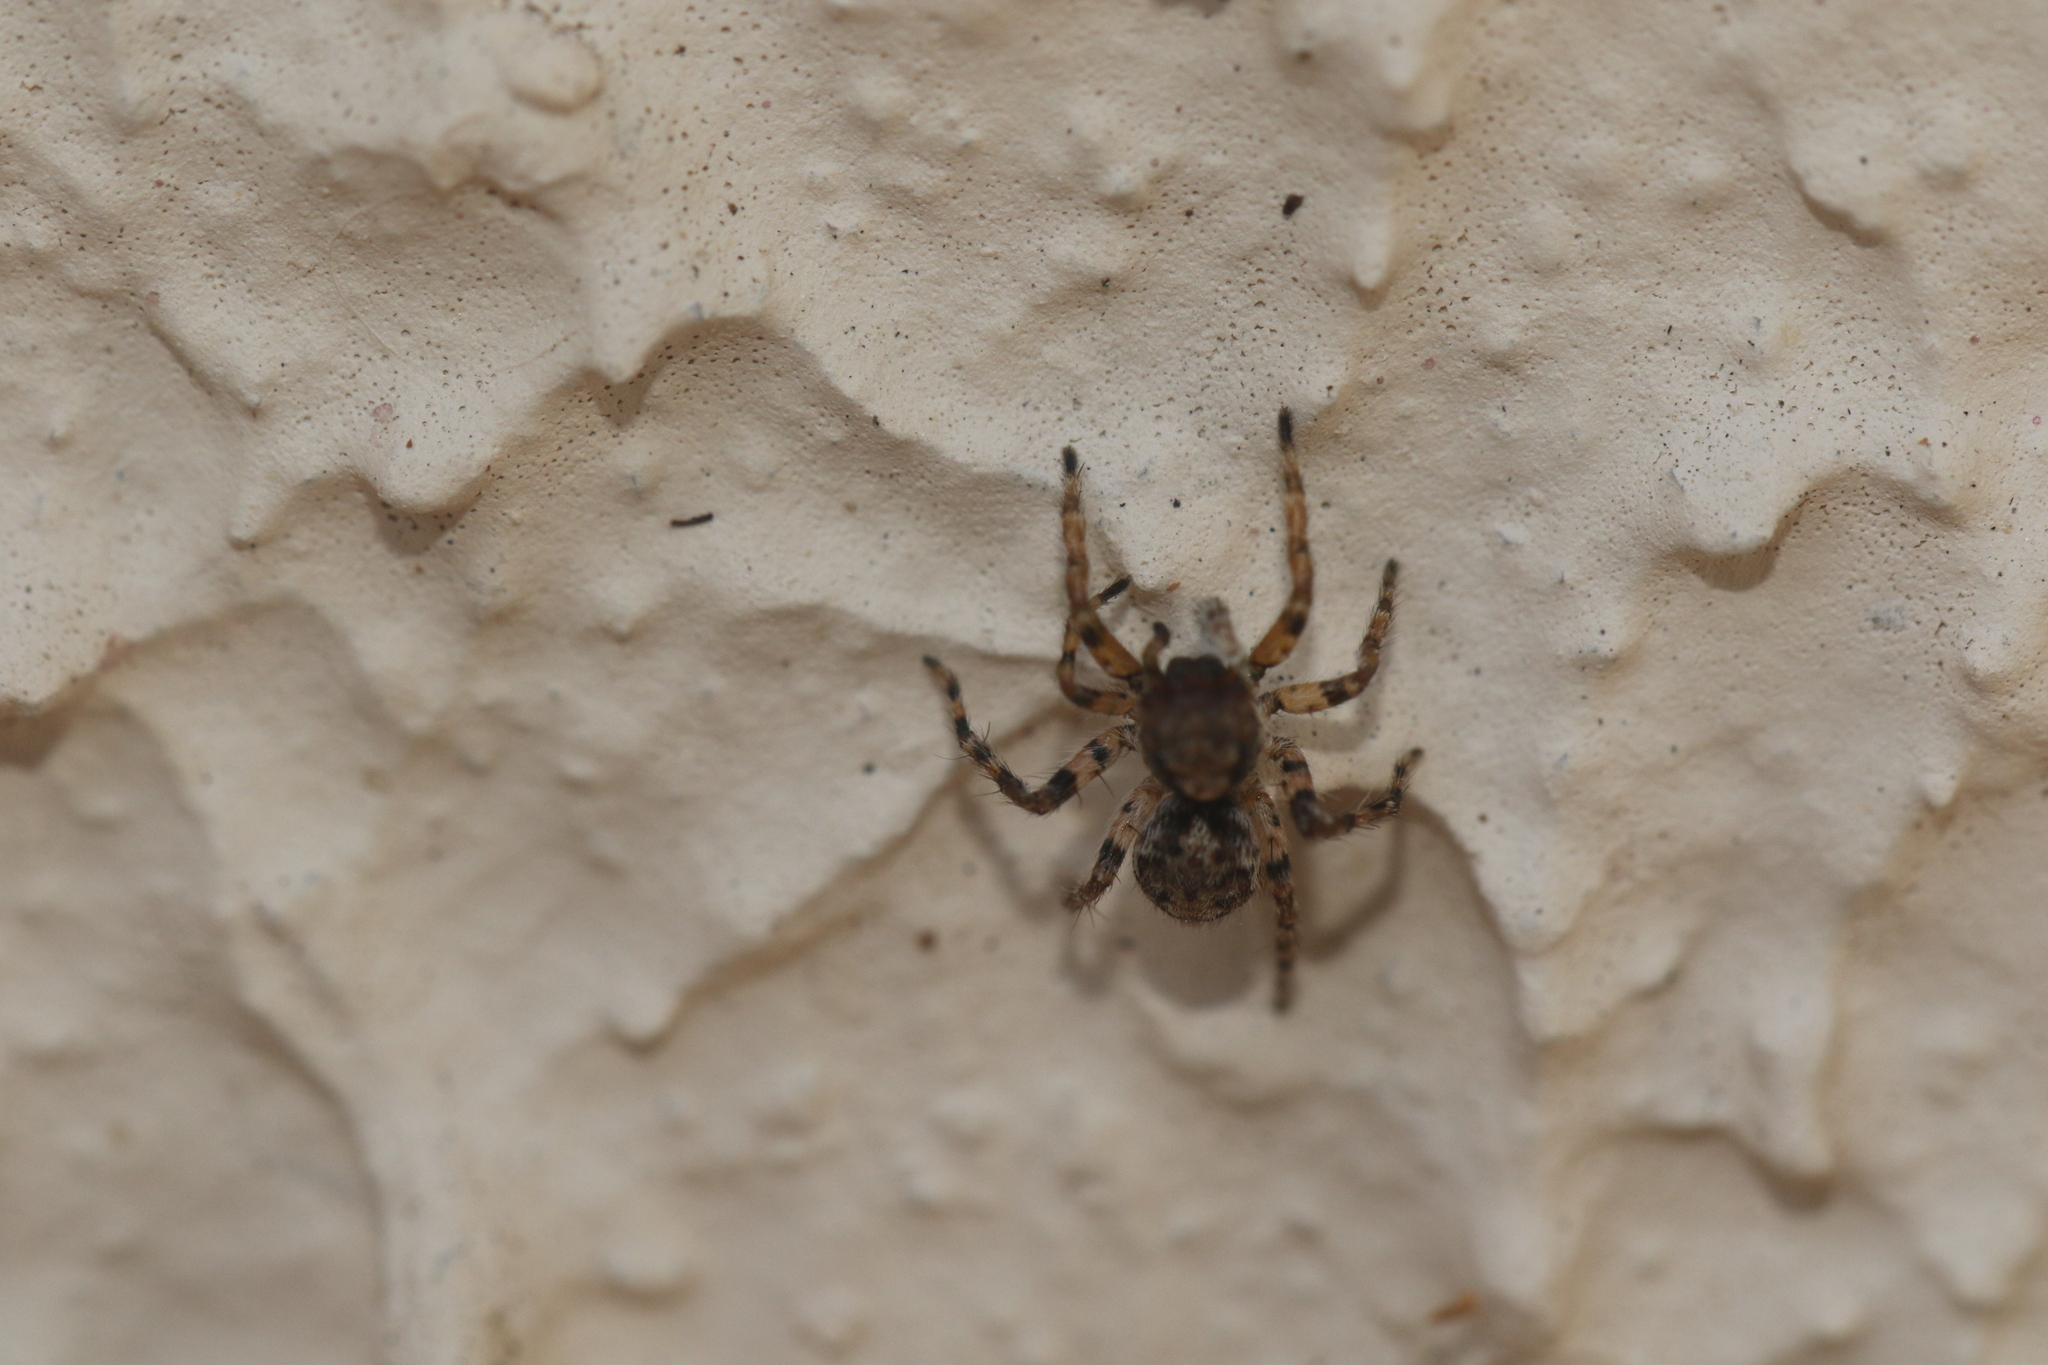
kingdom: Animalia
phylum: Arthropoda
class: Arachnida
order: Araneae
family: Salticidae
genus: Marma
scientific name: Marma nigritarsis
